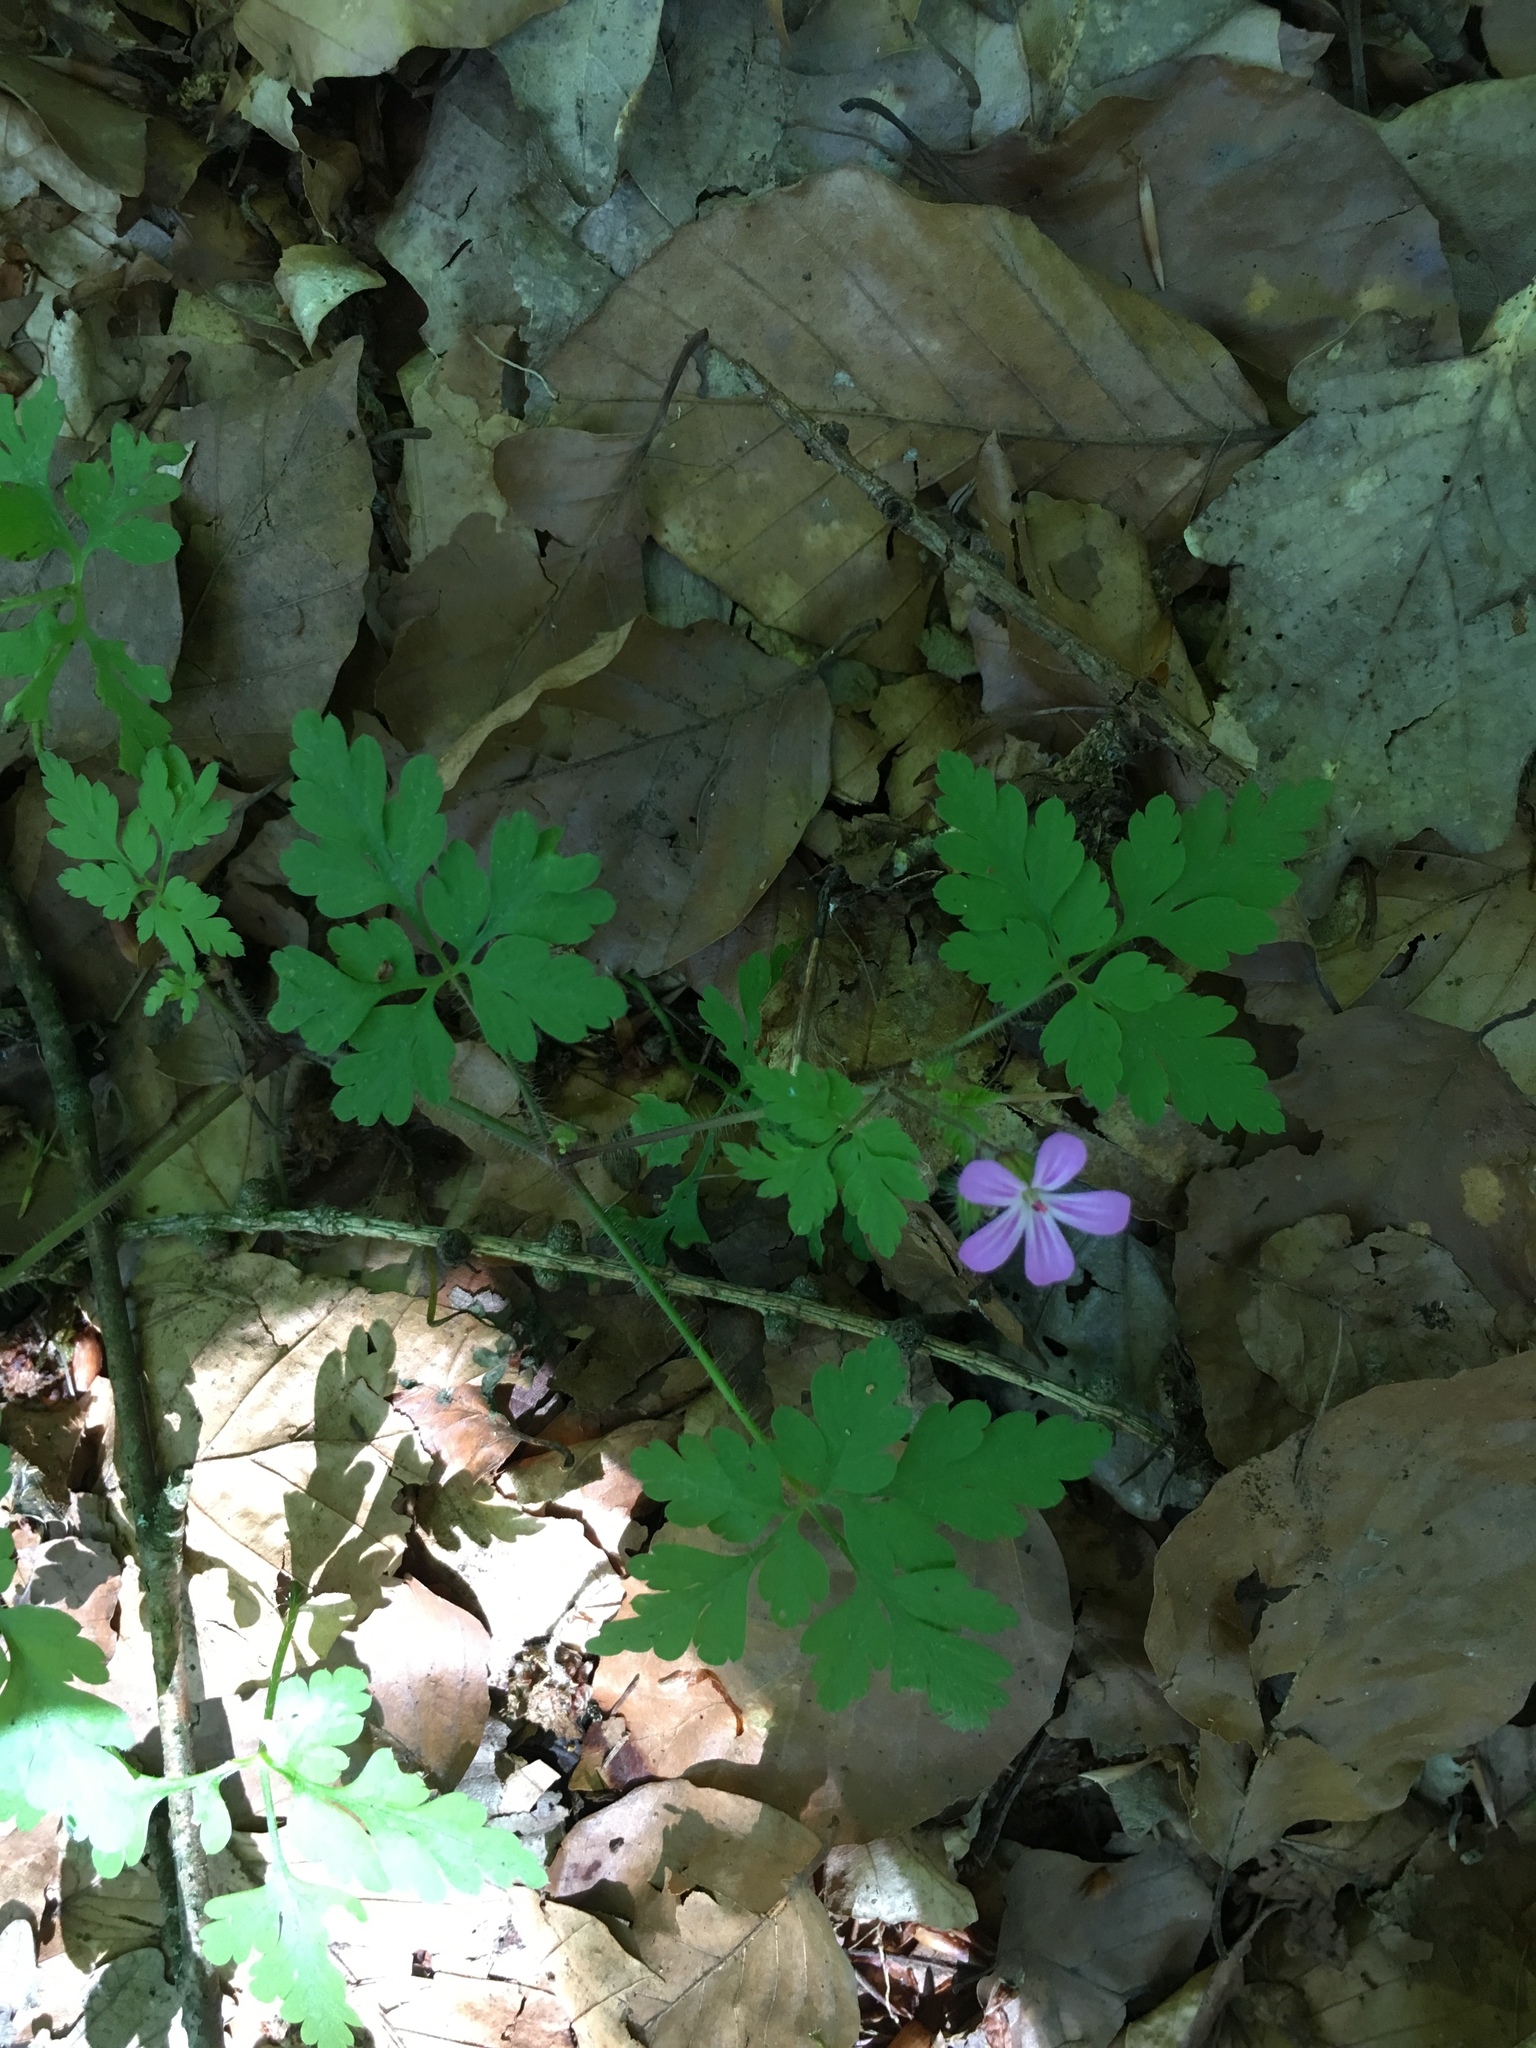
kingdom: Plantae
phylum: Tracheophyta
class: Magnoliopsida
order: Geraniales
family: Geraniaceae
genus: Geranium
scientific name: Geranium robertianum
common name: Herb-robert
